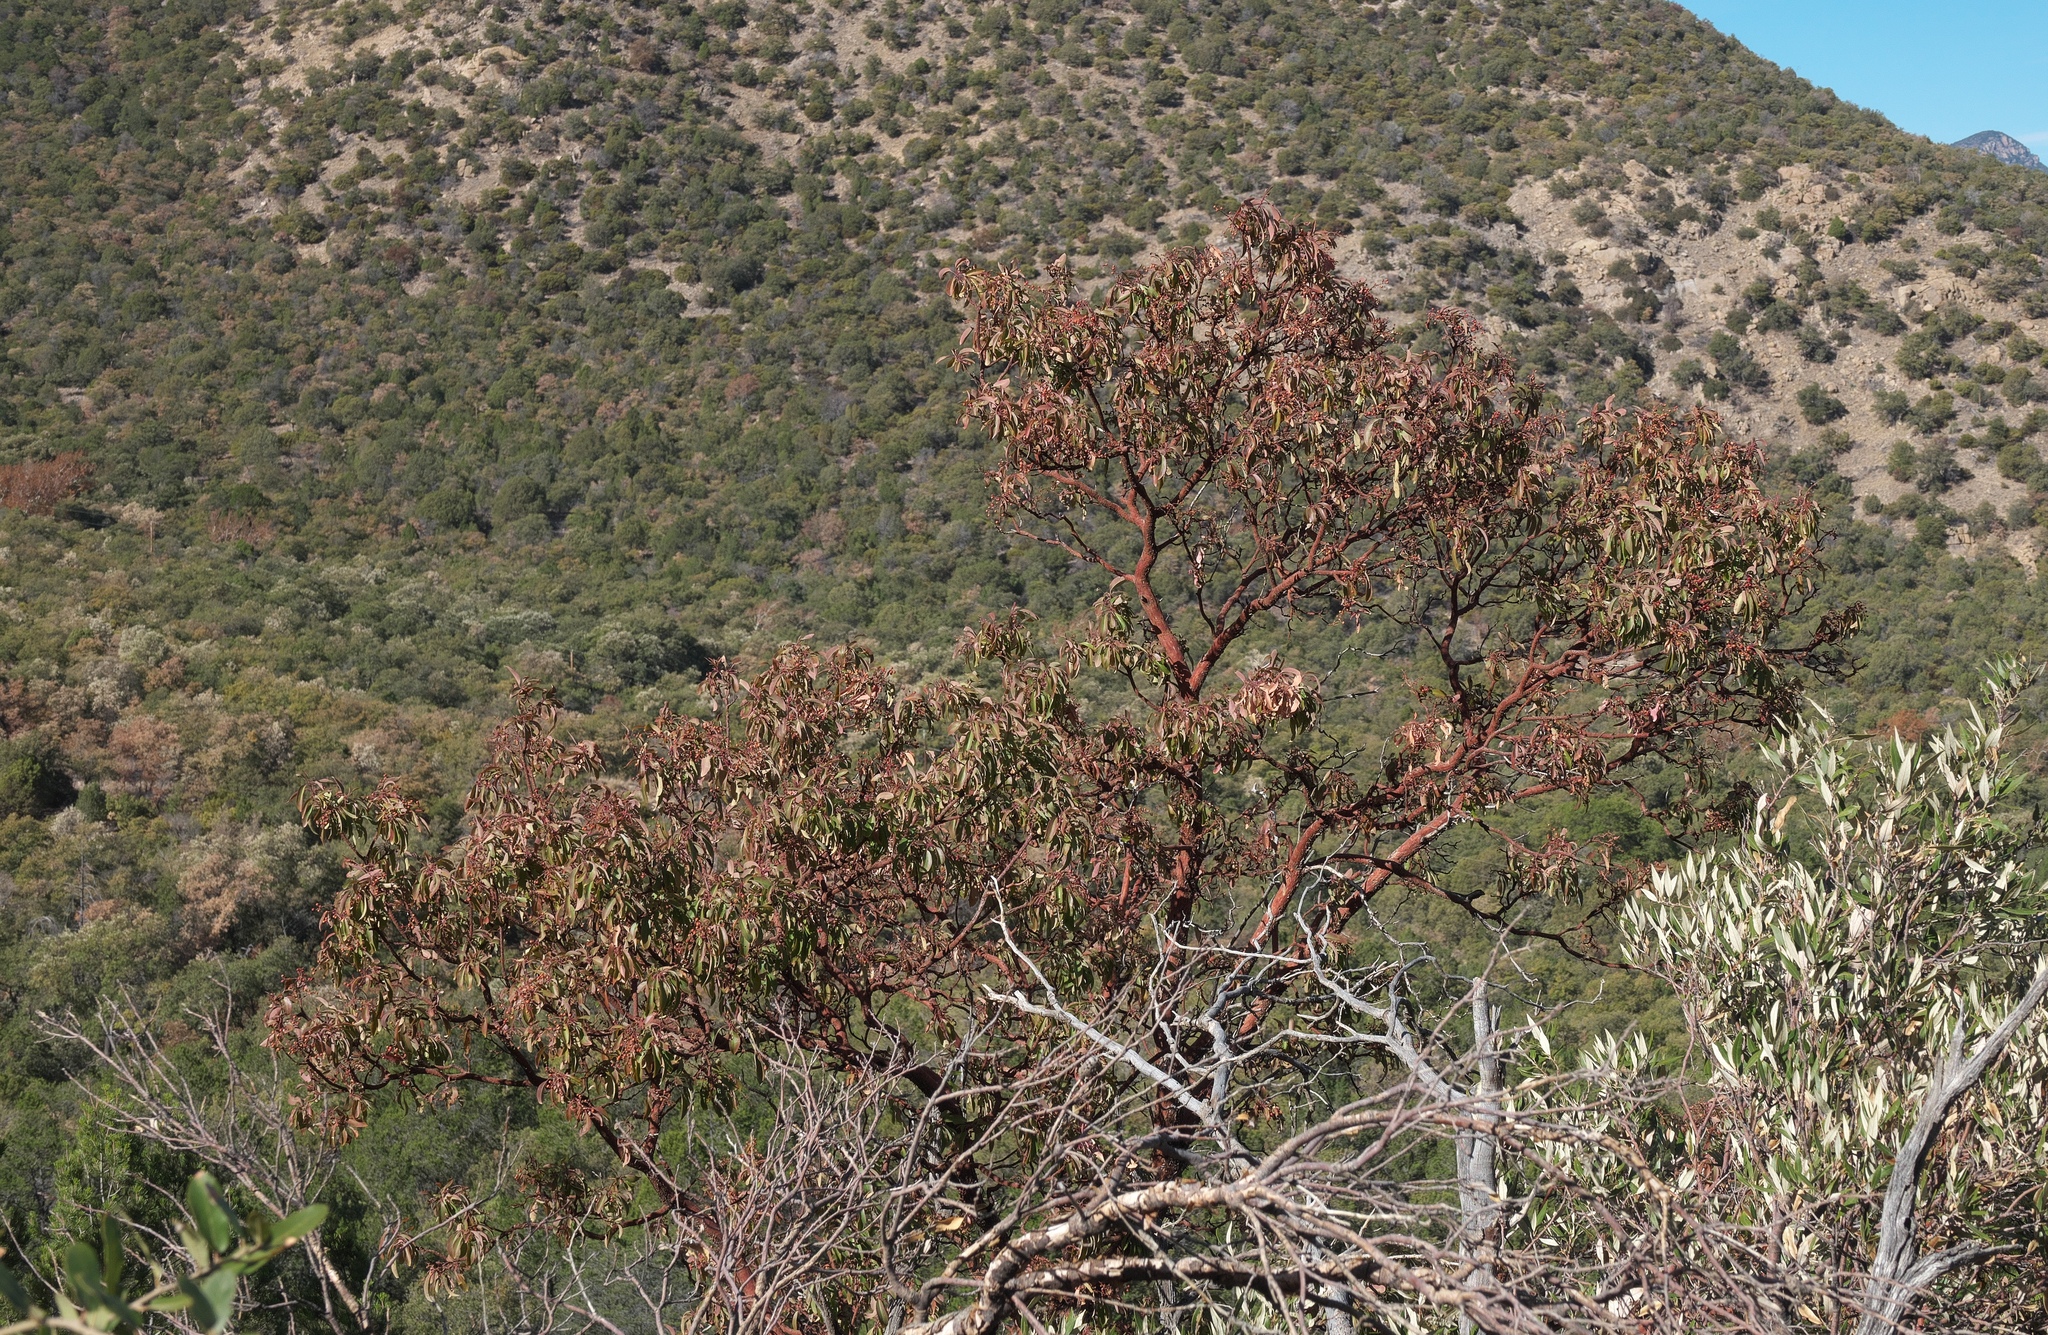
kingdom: Plantae
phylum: Tracheophyta
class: Magnoliopsida
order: Ericales
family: Ericaceae
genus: Arbutus
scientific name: Arbutus arizonica
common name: Arizona madrone
